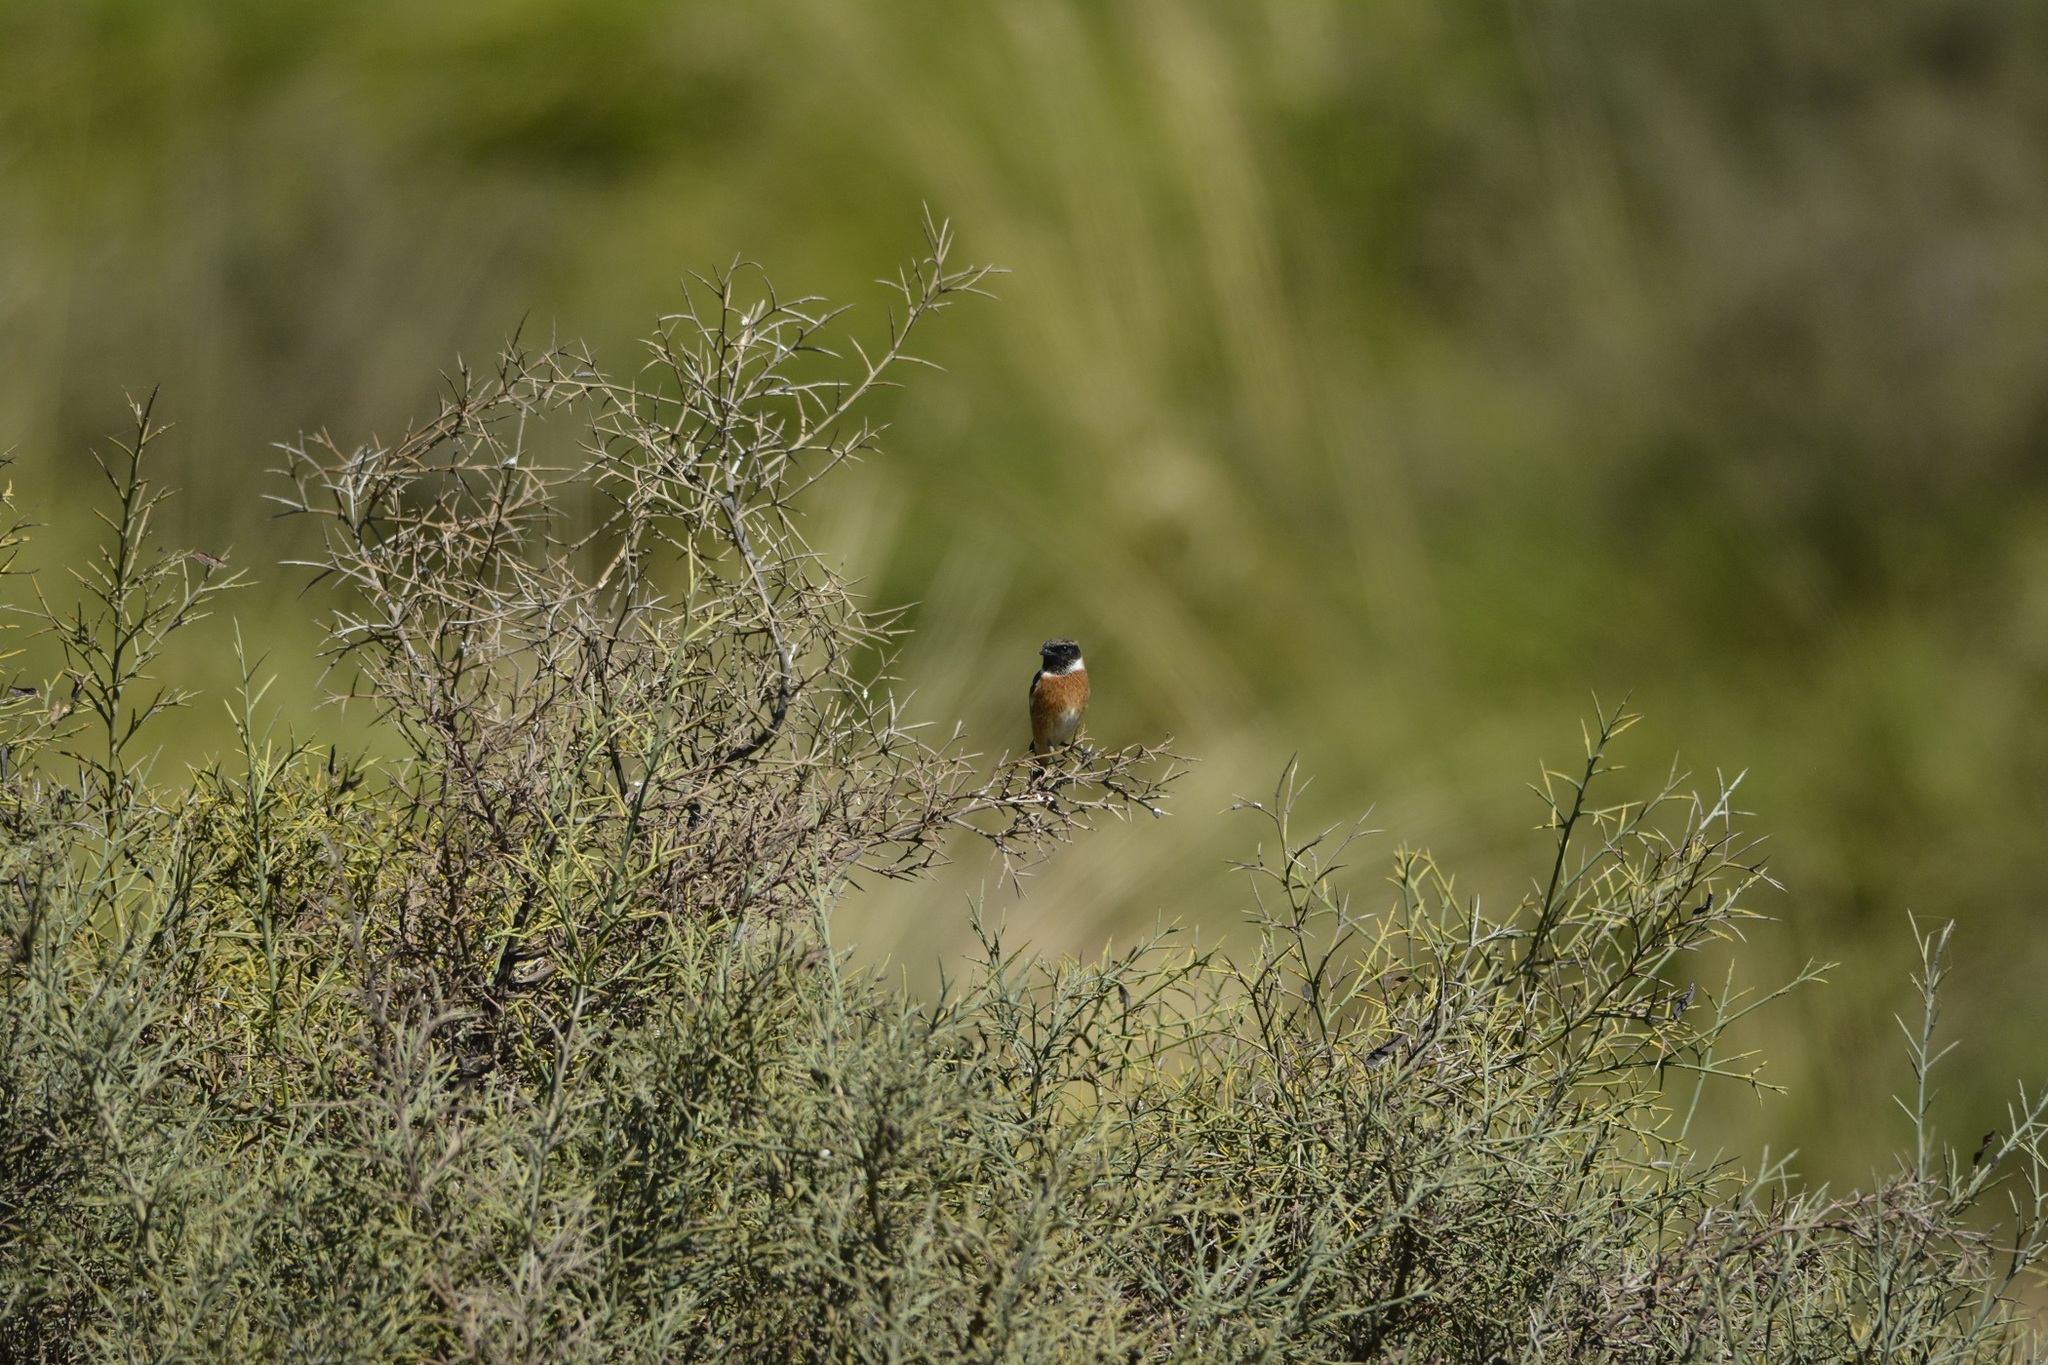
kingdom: Animalia
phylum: Chordata
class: Aves
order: Passeriformes
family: Muscicapidae
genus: Saxicola
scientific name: Saxicola rubicola
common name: European stonechat
